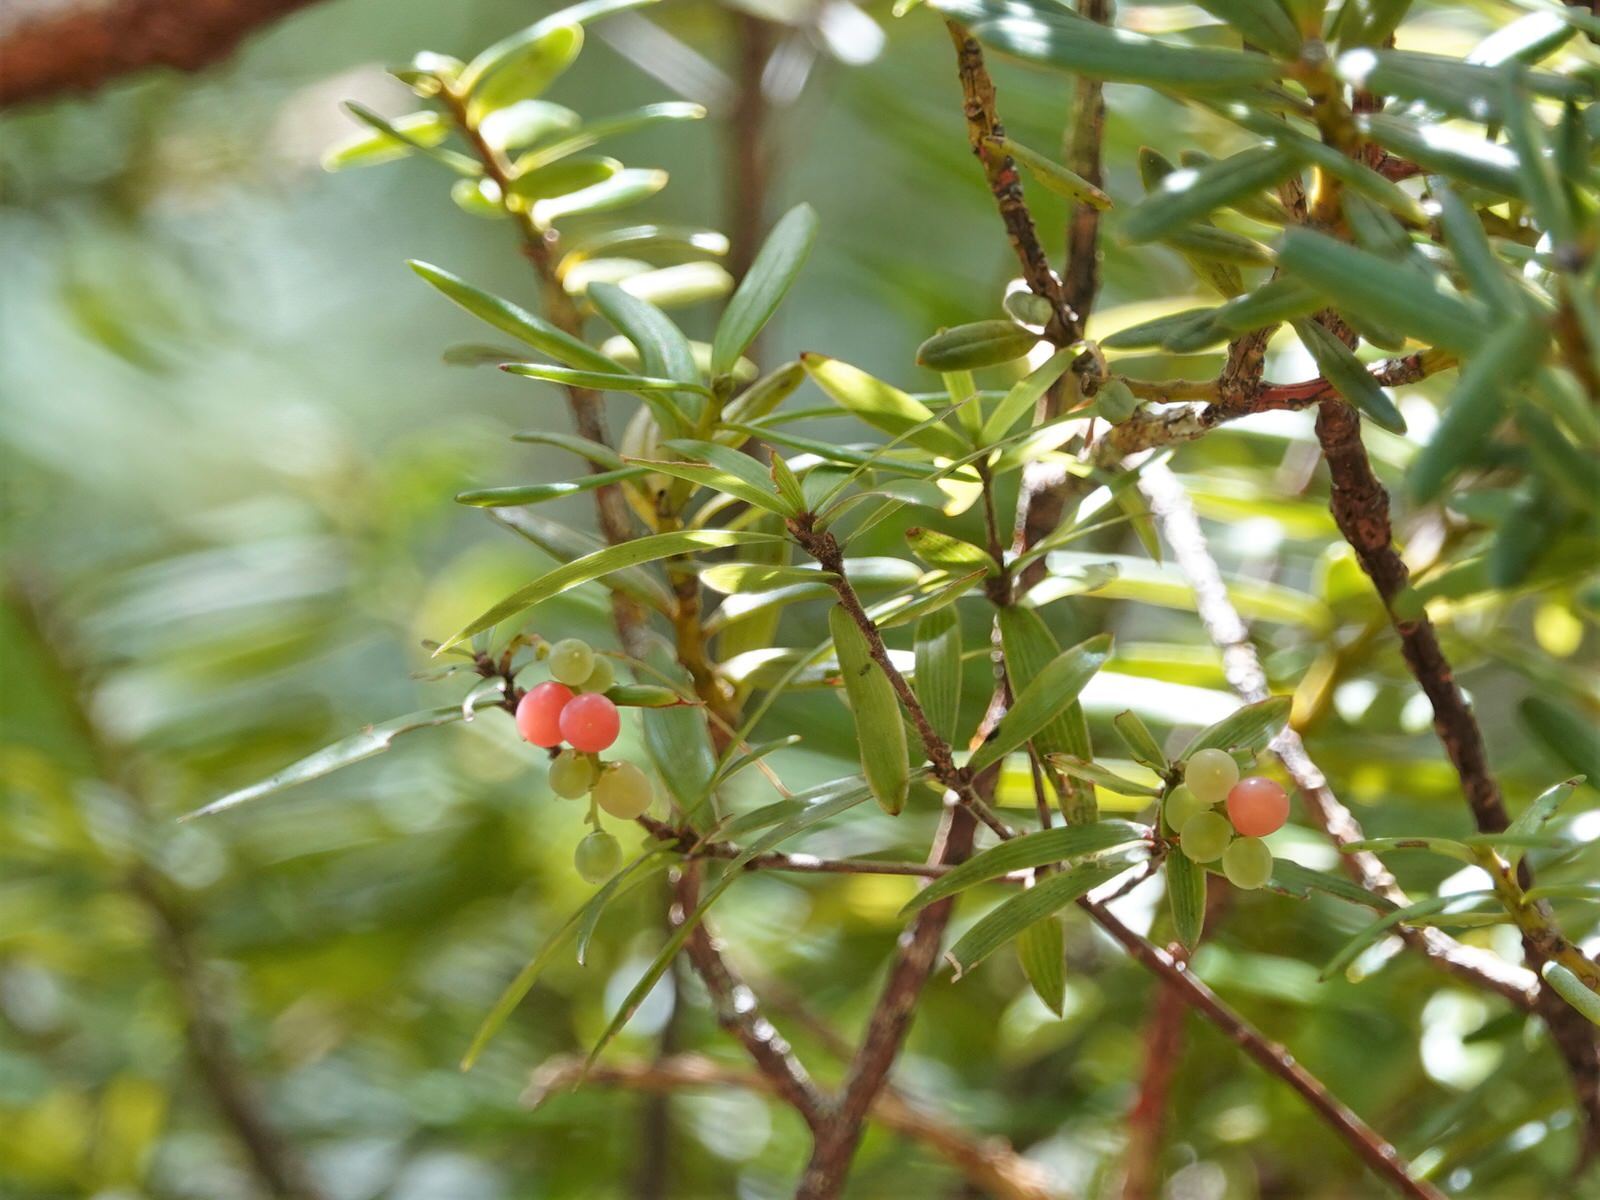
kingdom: Plantae
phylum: Tracheophyta
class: Magnoliopsida
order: Ericales
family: Ericaceae
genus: Leucopogon
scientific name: Leucopogon fasciculatus
